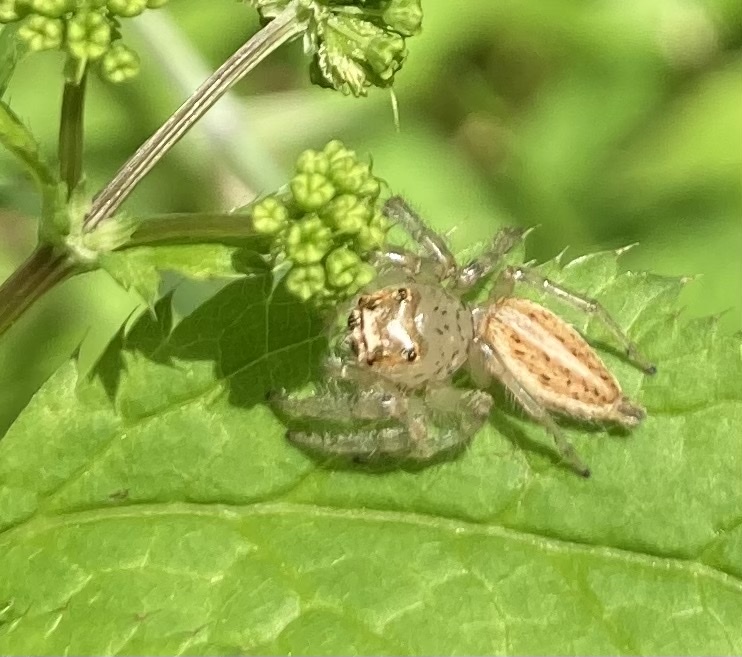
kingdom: Animalia
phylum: Arthropoda
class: Arachnida
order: Araneae
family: Salticidae
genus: Colonus
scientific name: Colonus sylvanus
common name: Jumping spiders
